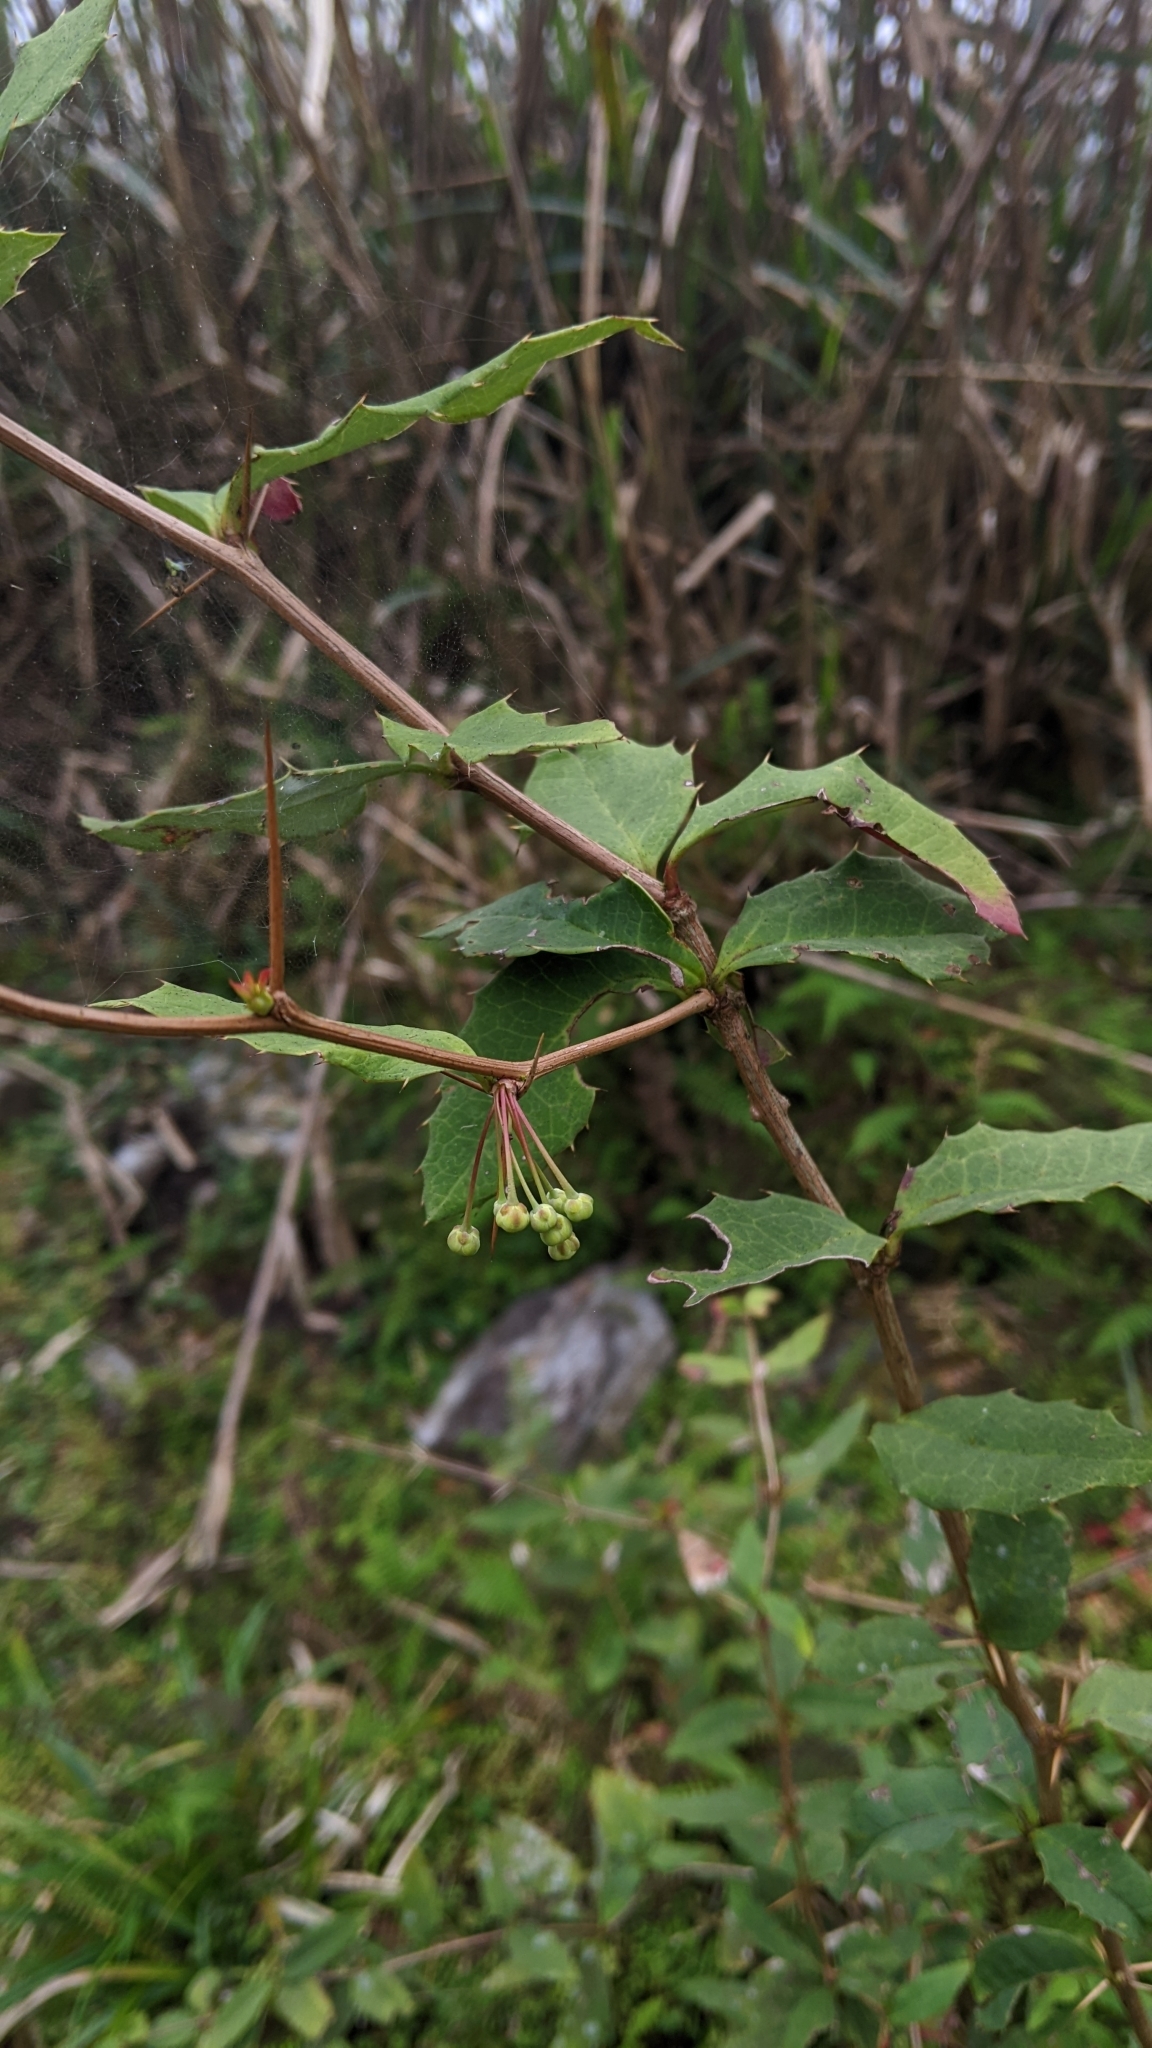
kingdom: Plantae
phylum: Tracheophyta
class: Magnoliopsida
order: Ranunculales
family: Berberidaceae
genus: Berberis
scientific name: Berberis morii
